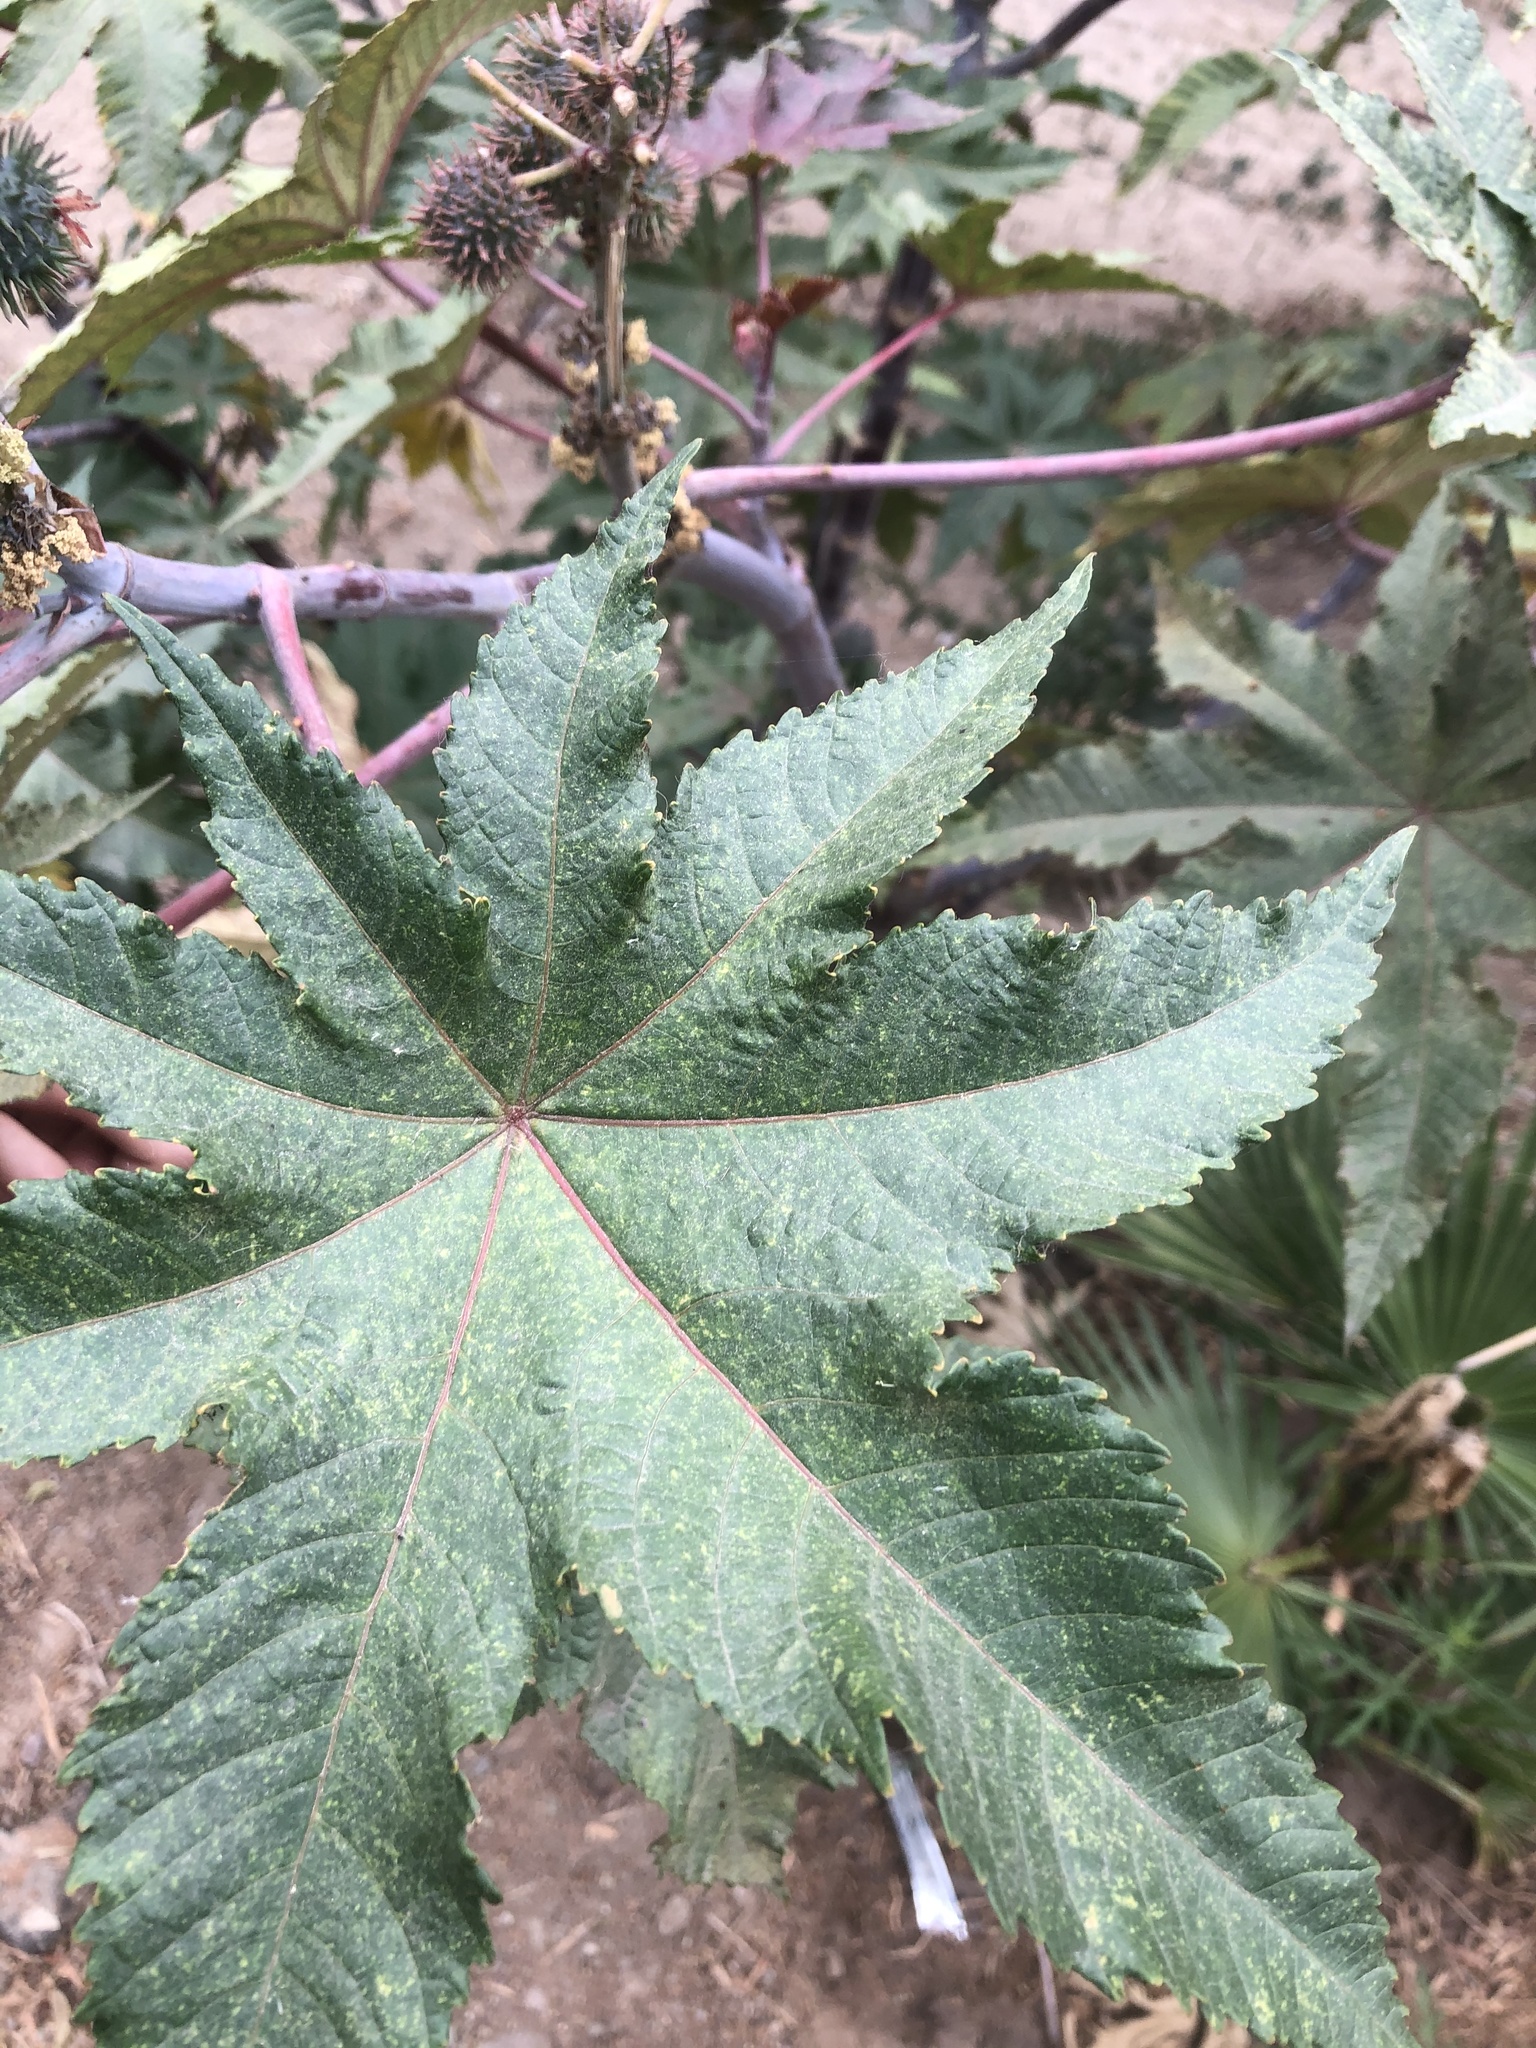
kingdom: Plantae
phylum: Tracheophyta
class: Magnoliopsida
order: Malpighiales
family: Euphorbiaceae
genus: Ricinus
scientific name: Ricinus communis
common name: Castor-oil-plant
